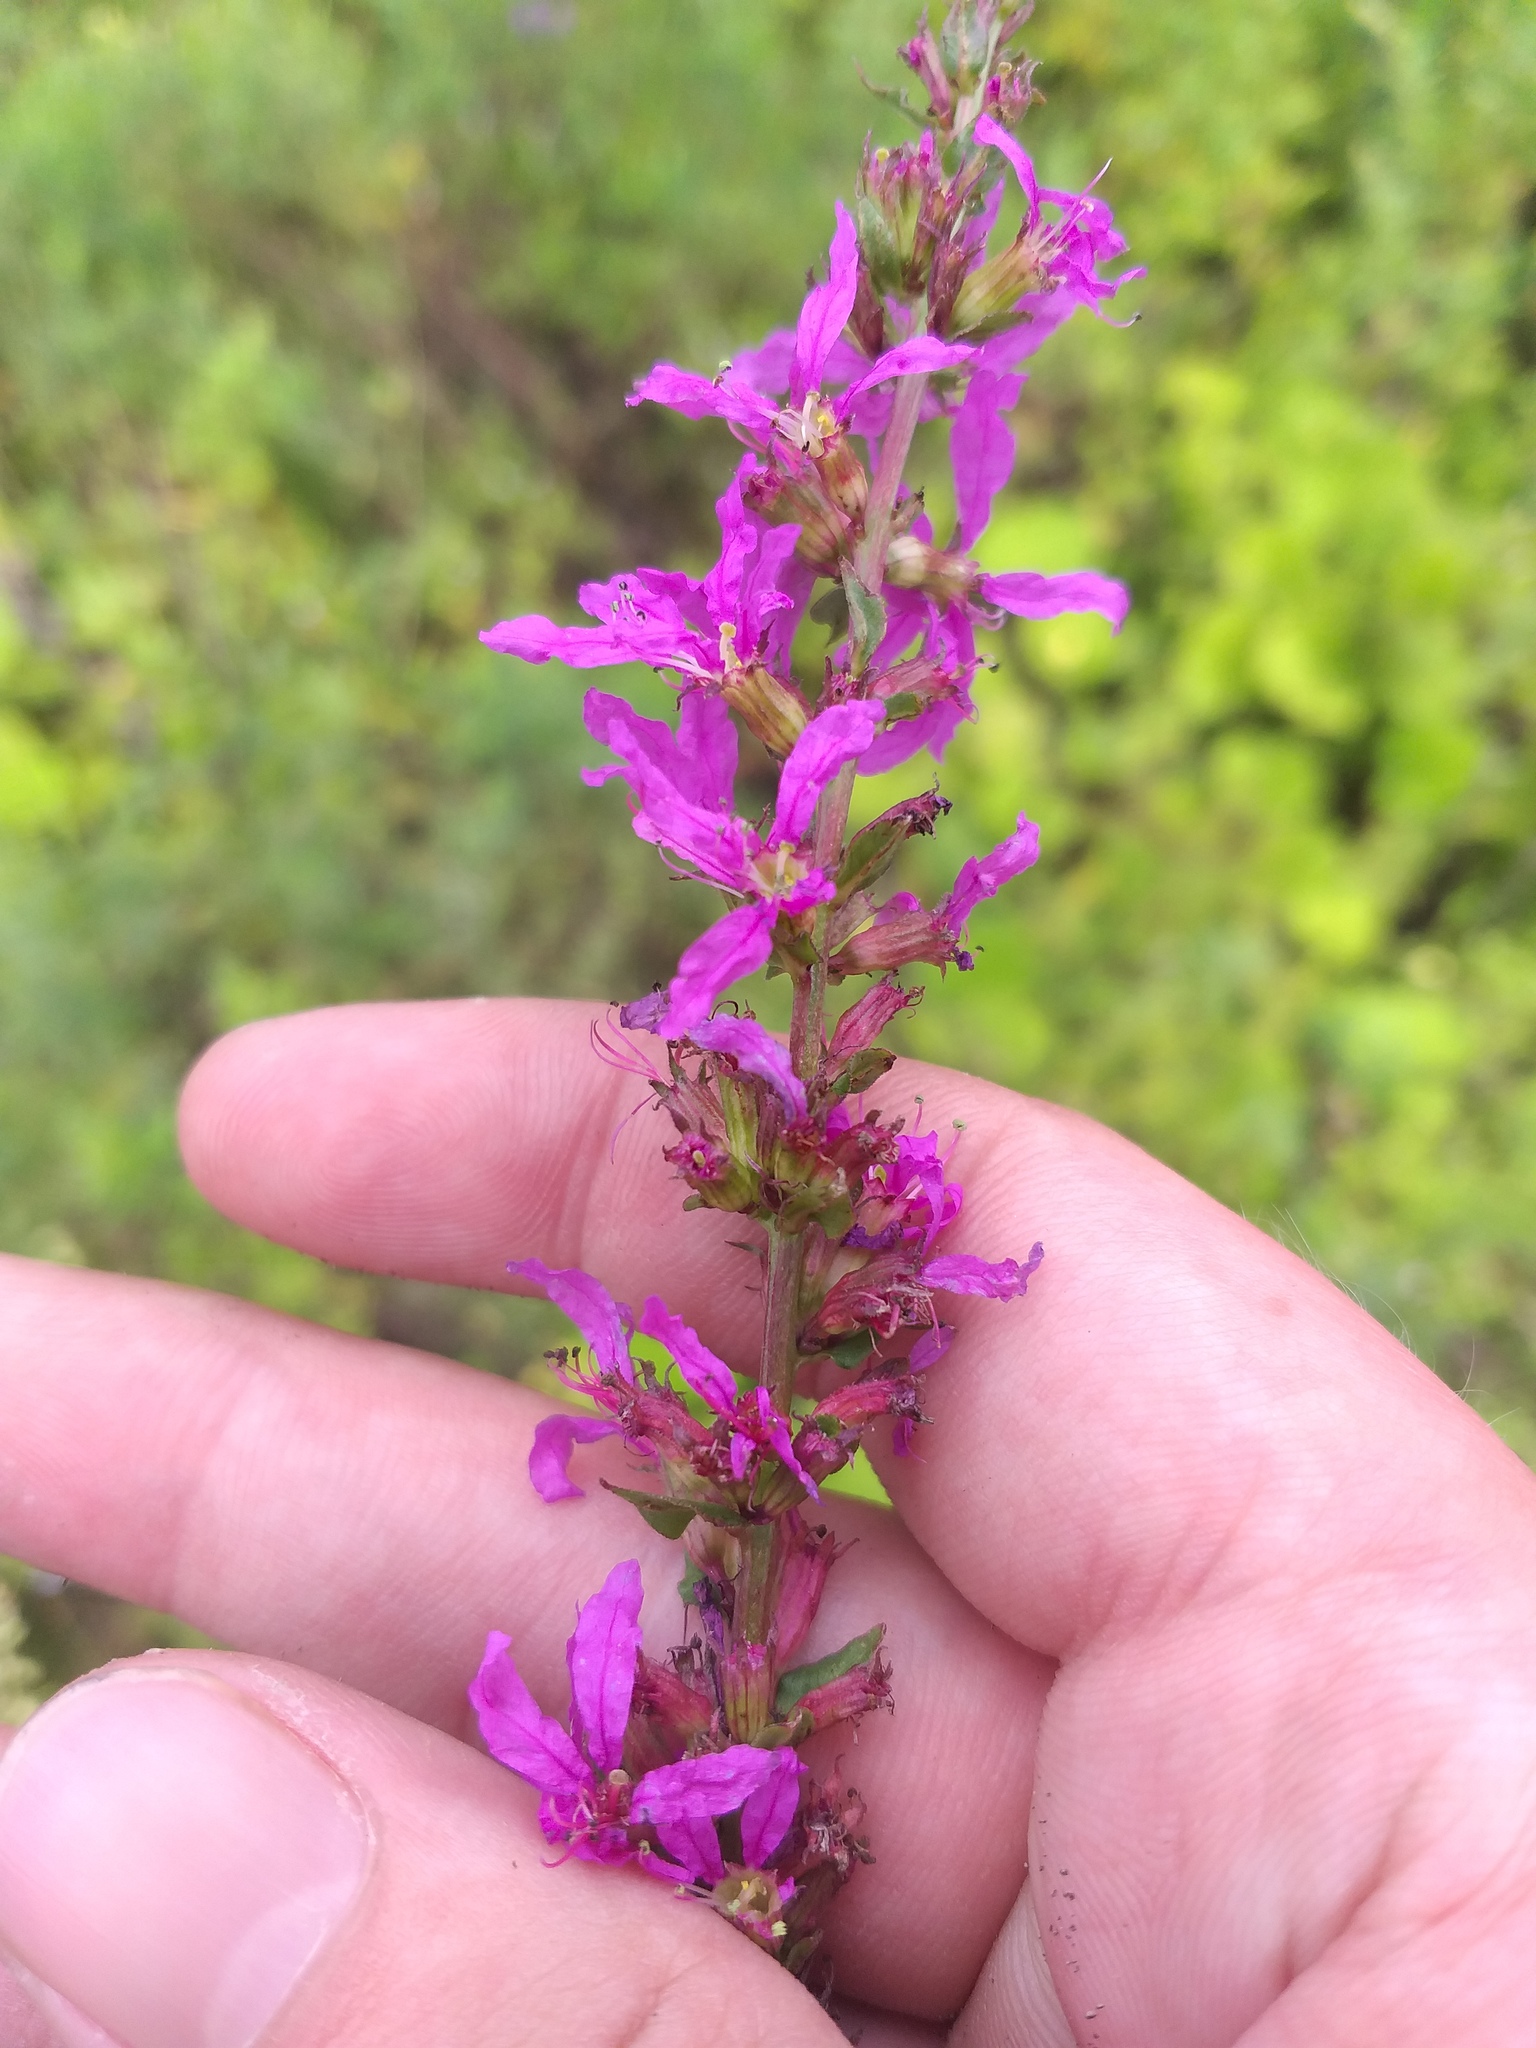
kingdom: Plantae
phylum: Tracheophyta
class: Magnoliopsida
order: Myrtales
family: Lythraceae
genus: Lythrum
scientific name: Lythrum salicaria
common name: Purple loosestrife
